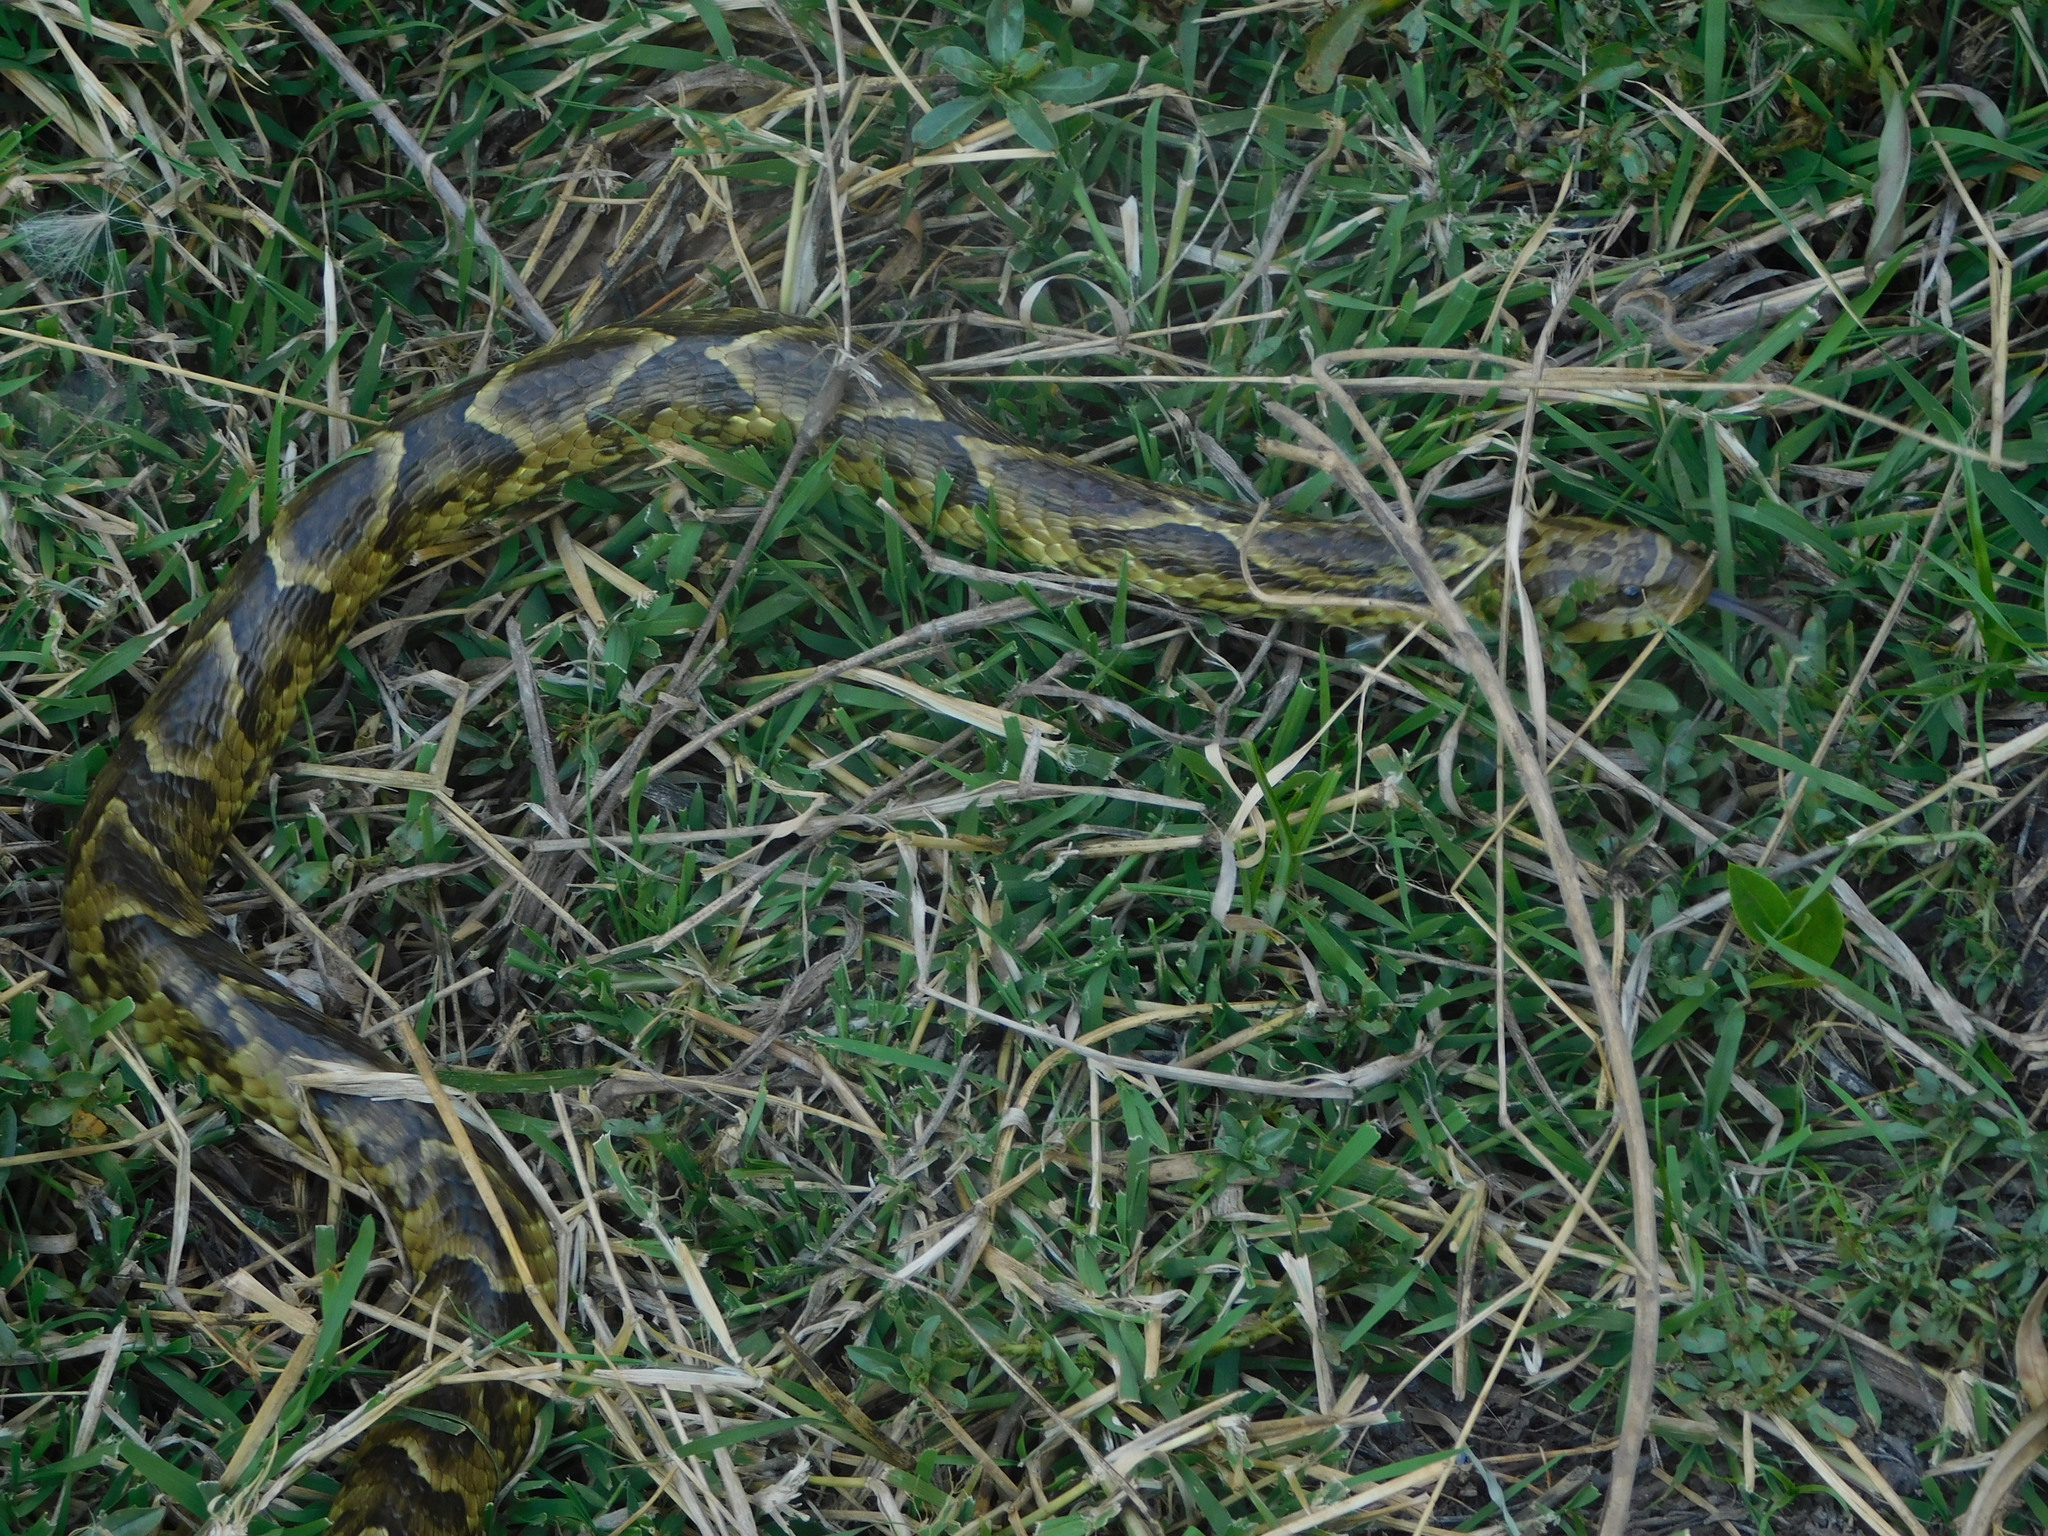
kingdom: Animalia
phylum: Chordata
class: Squamata
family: Colubridae
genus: Xenodon
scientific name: Xenodon merremii
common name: Wagler's snake
